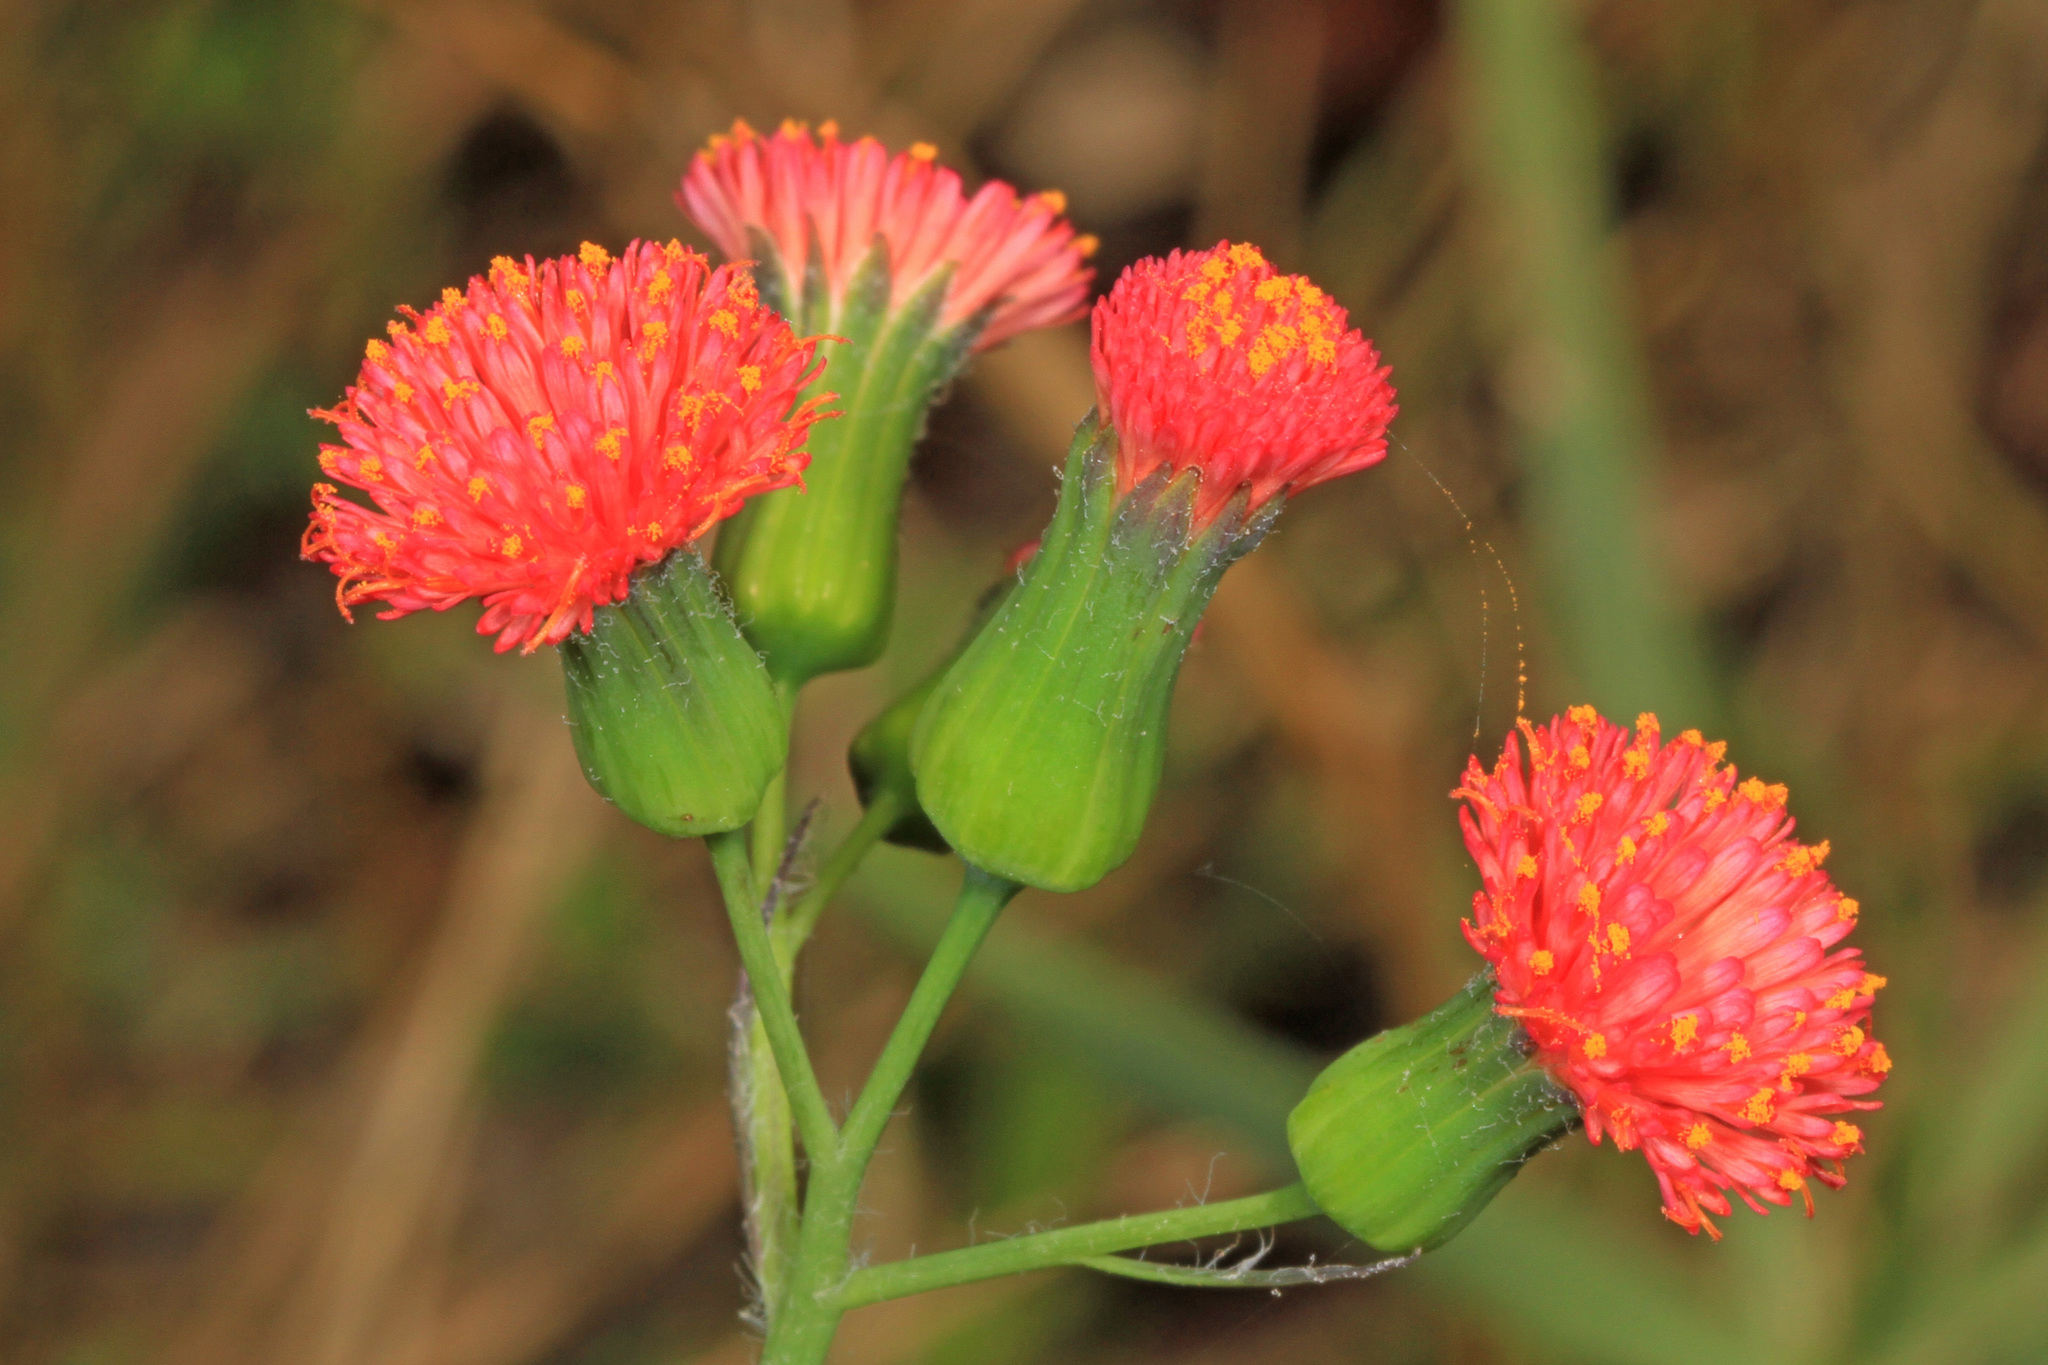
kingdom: Plantae
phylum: Tracheophyta
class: Magnoliopsida
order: Asterales
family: Asteraceae
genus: Emilia
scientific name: Emilia fosbergii
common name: Florida tasselflower
